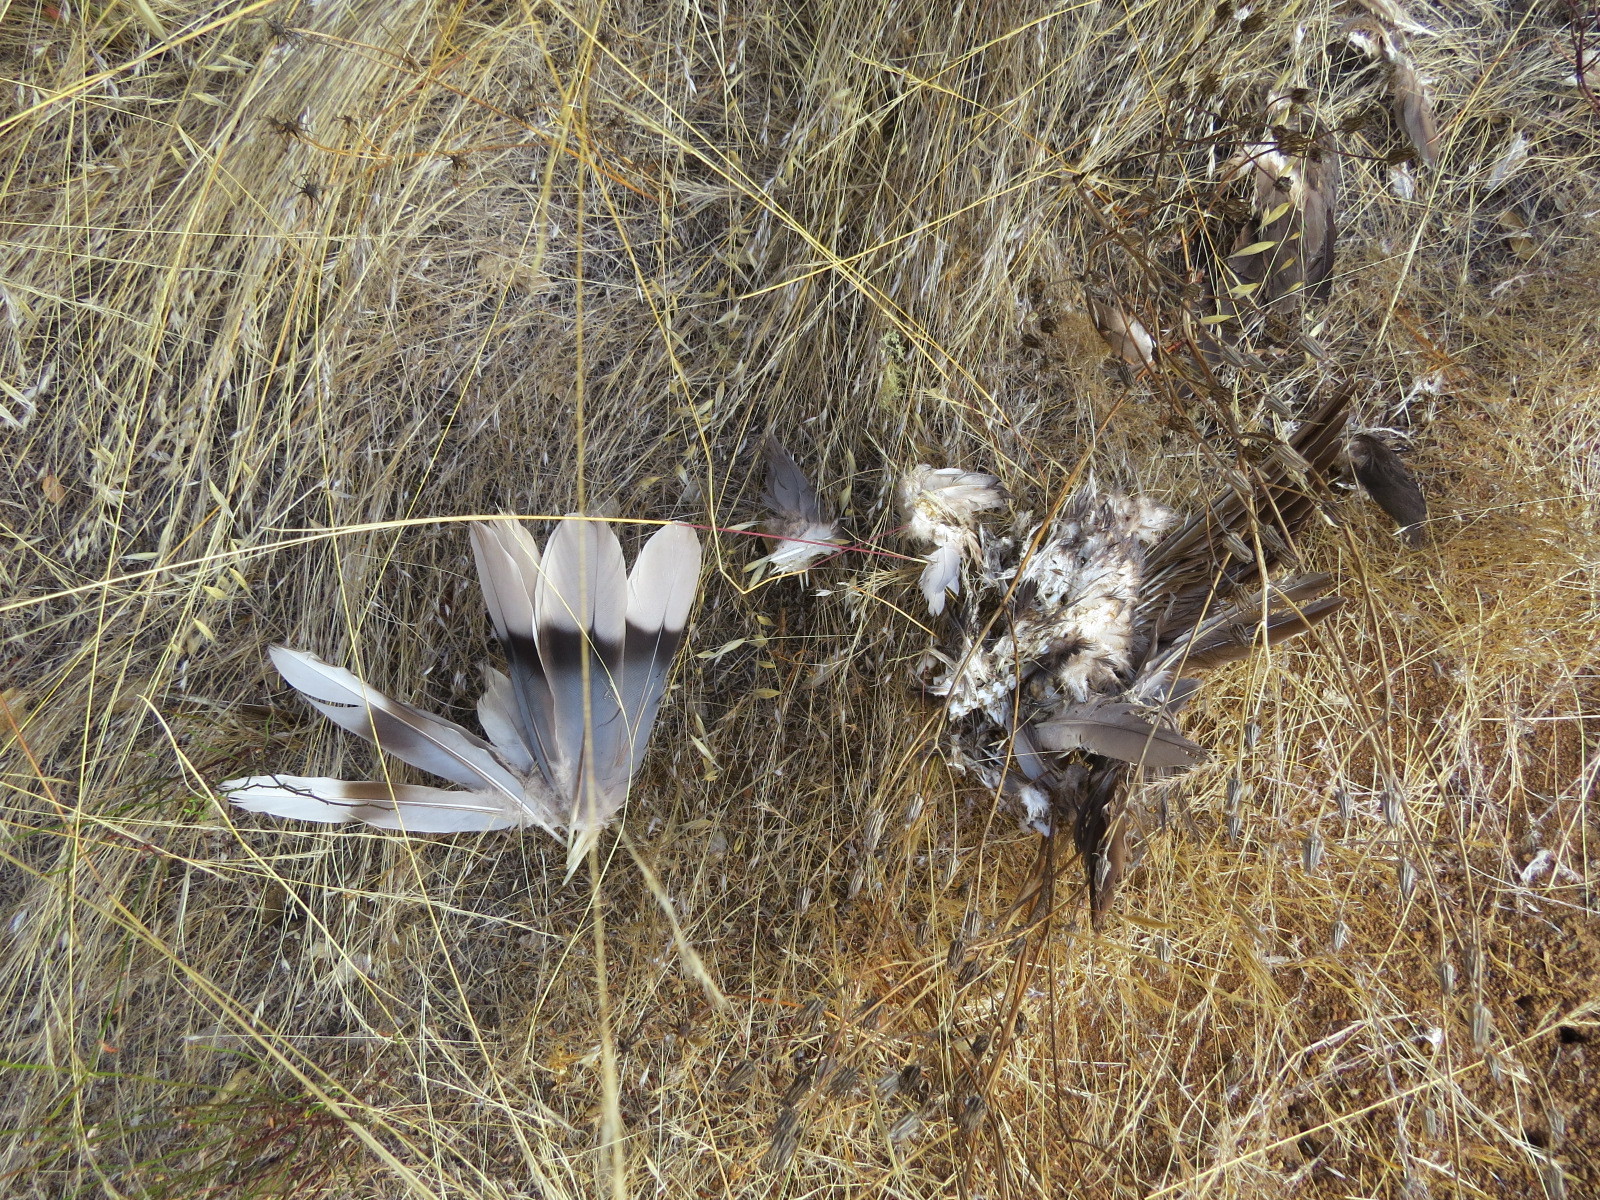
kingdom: Animalia
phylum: Chordata
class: Aves
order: Columbiformes
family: Columbidae
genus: Patagioenas
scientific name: Patagioenas fasciata
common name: Band-tailed pigeon
